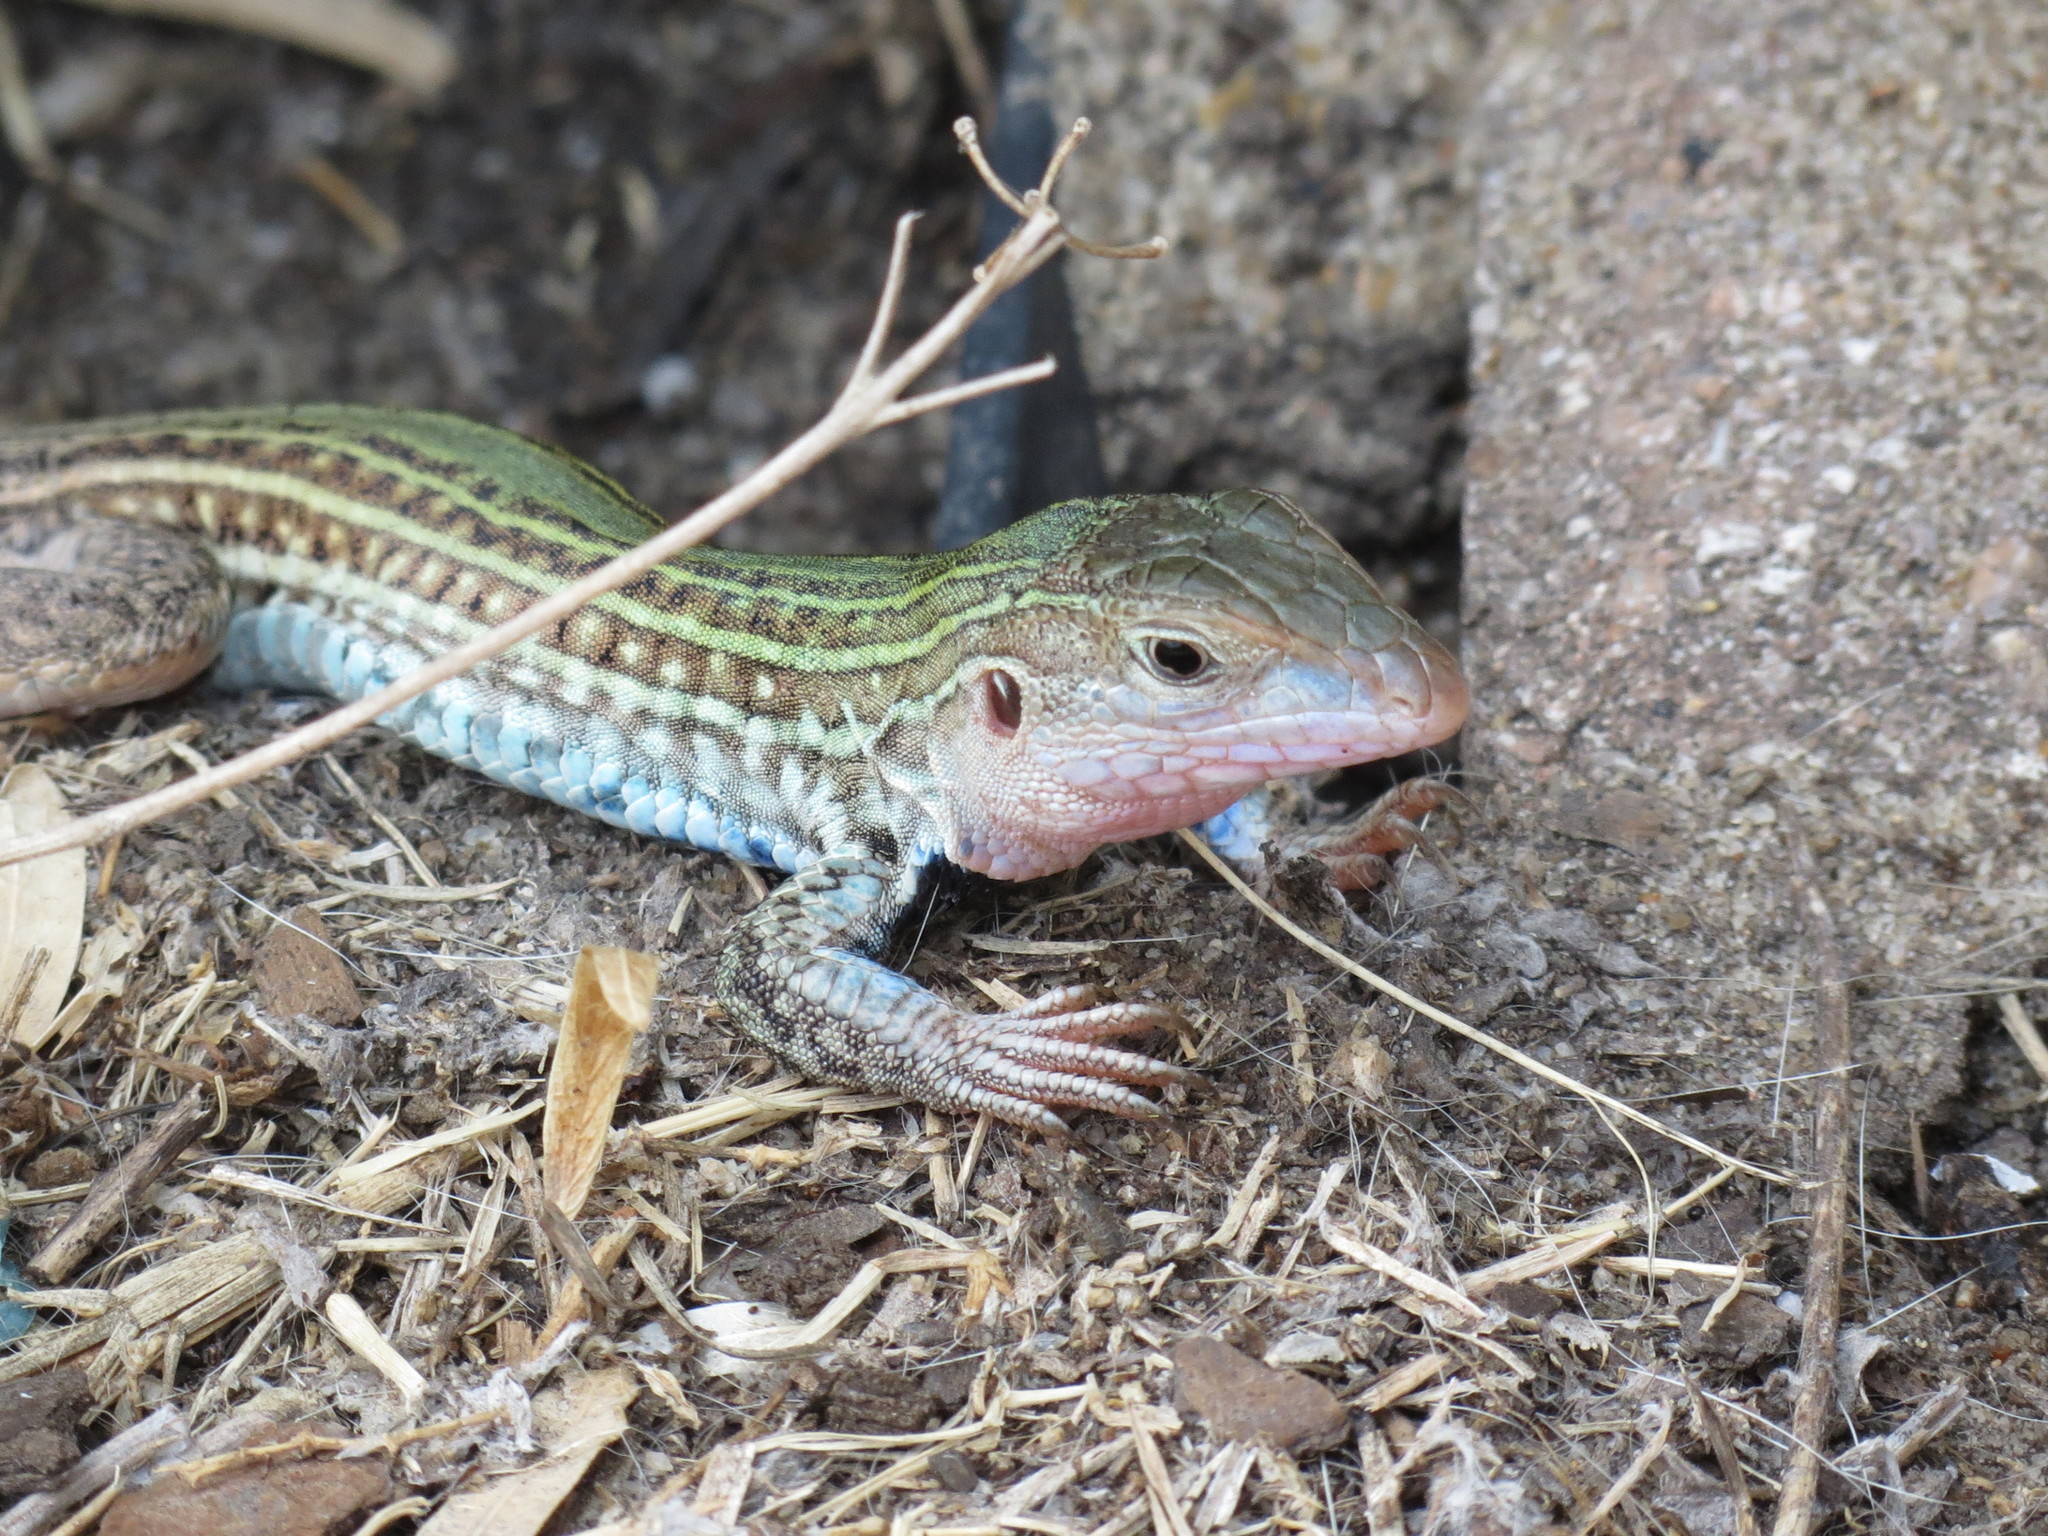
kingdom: Animalia
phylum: Chordata
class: Squamata
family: Teiidae
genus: Aspidoscelis
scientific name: Aspidoscelis gularis
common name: Eastern spotted whiptail
